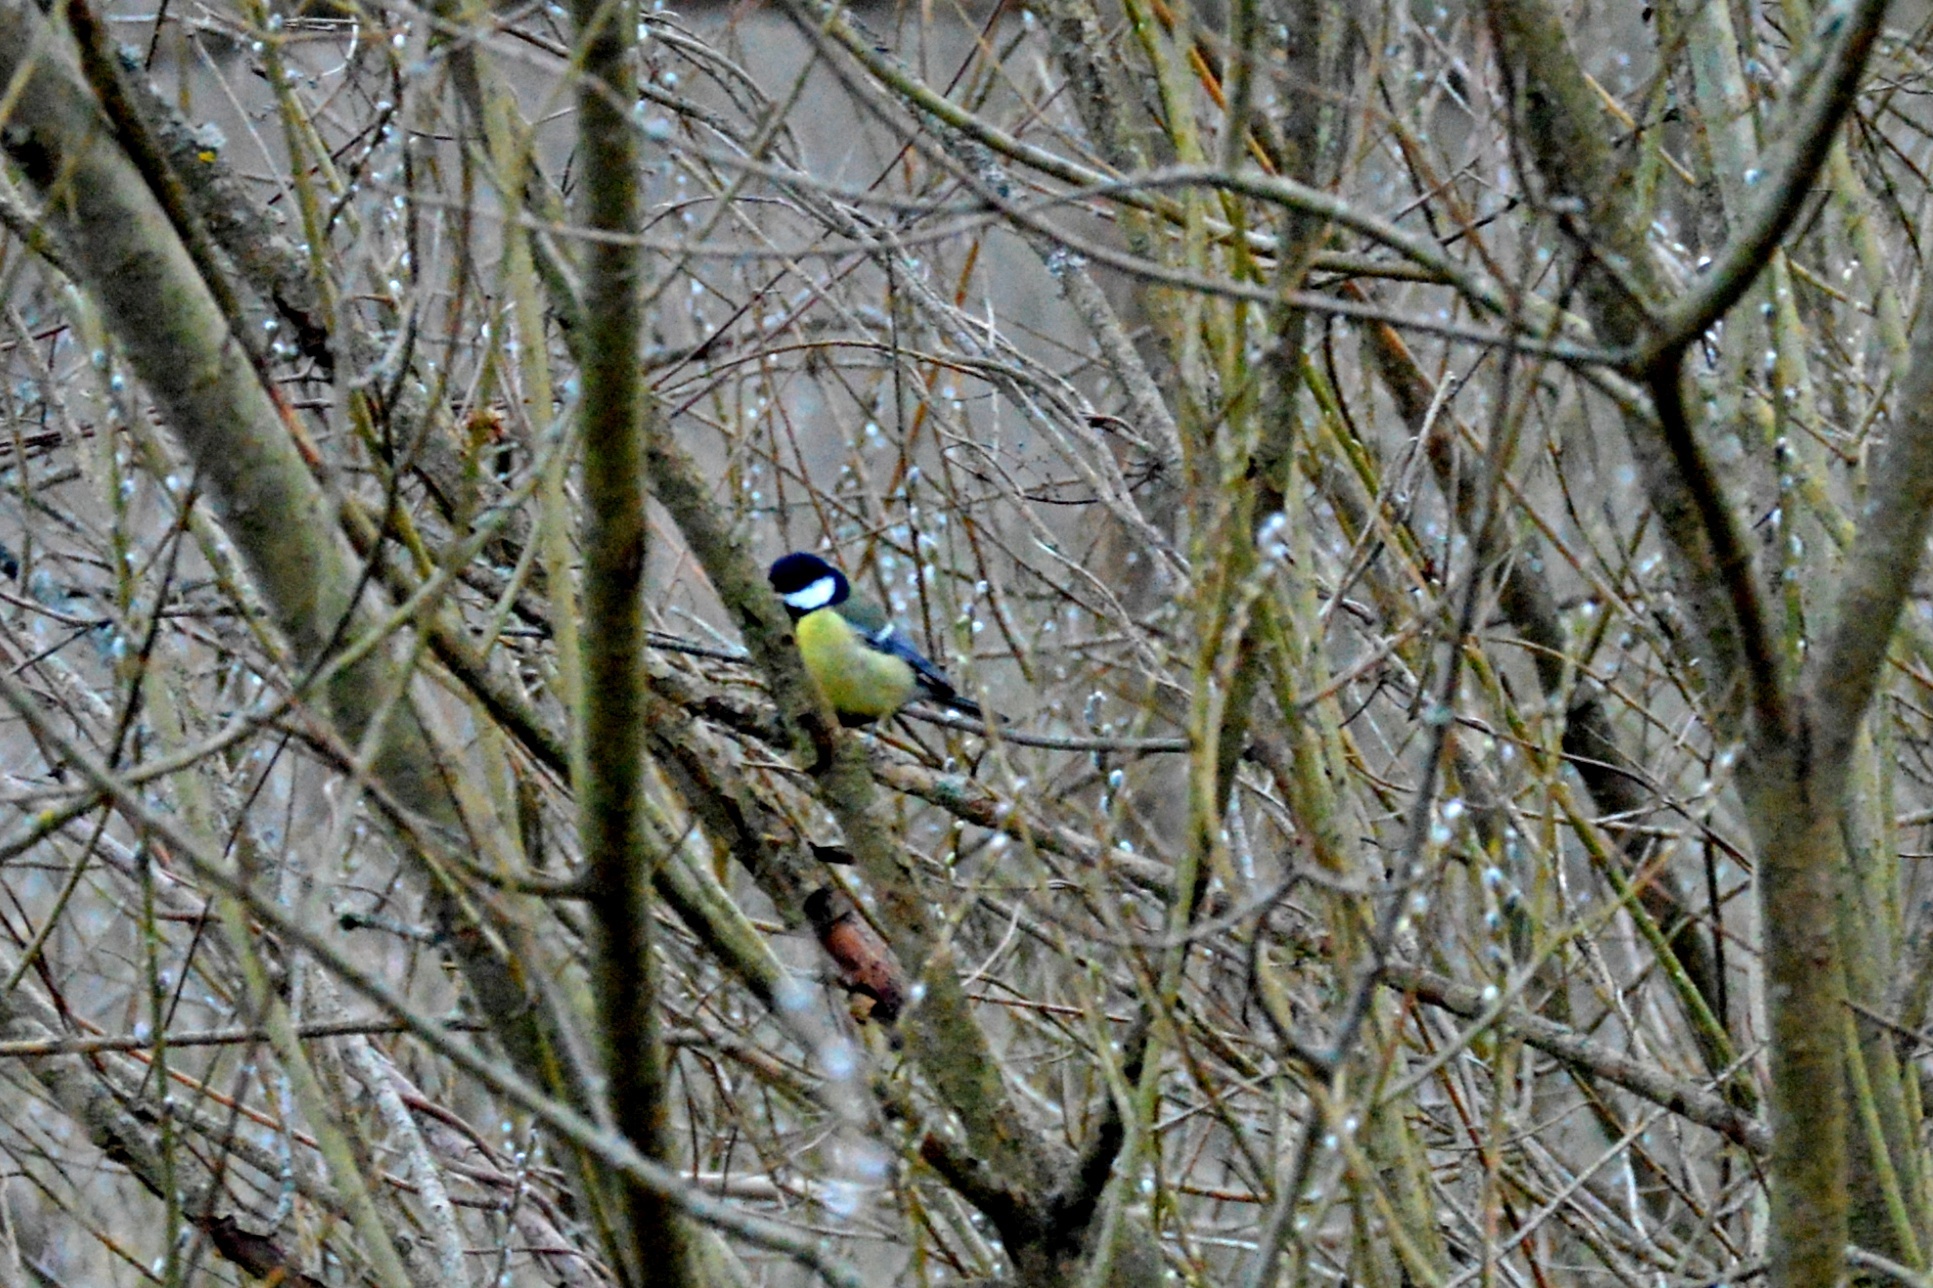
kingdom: Animalia
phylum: Chordata
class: Aves
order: Passeriformes
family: Paridae
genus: Parus
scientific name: Parus major
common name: Great tit
